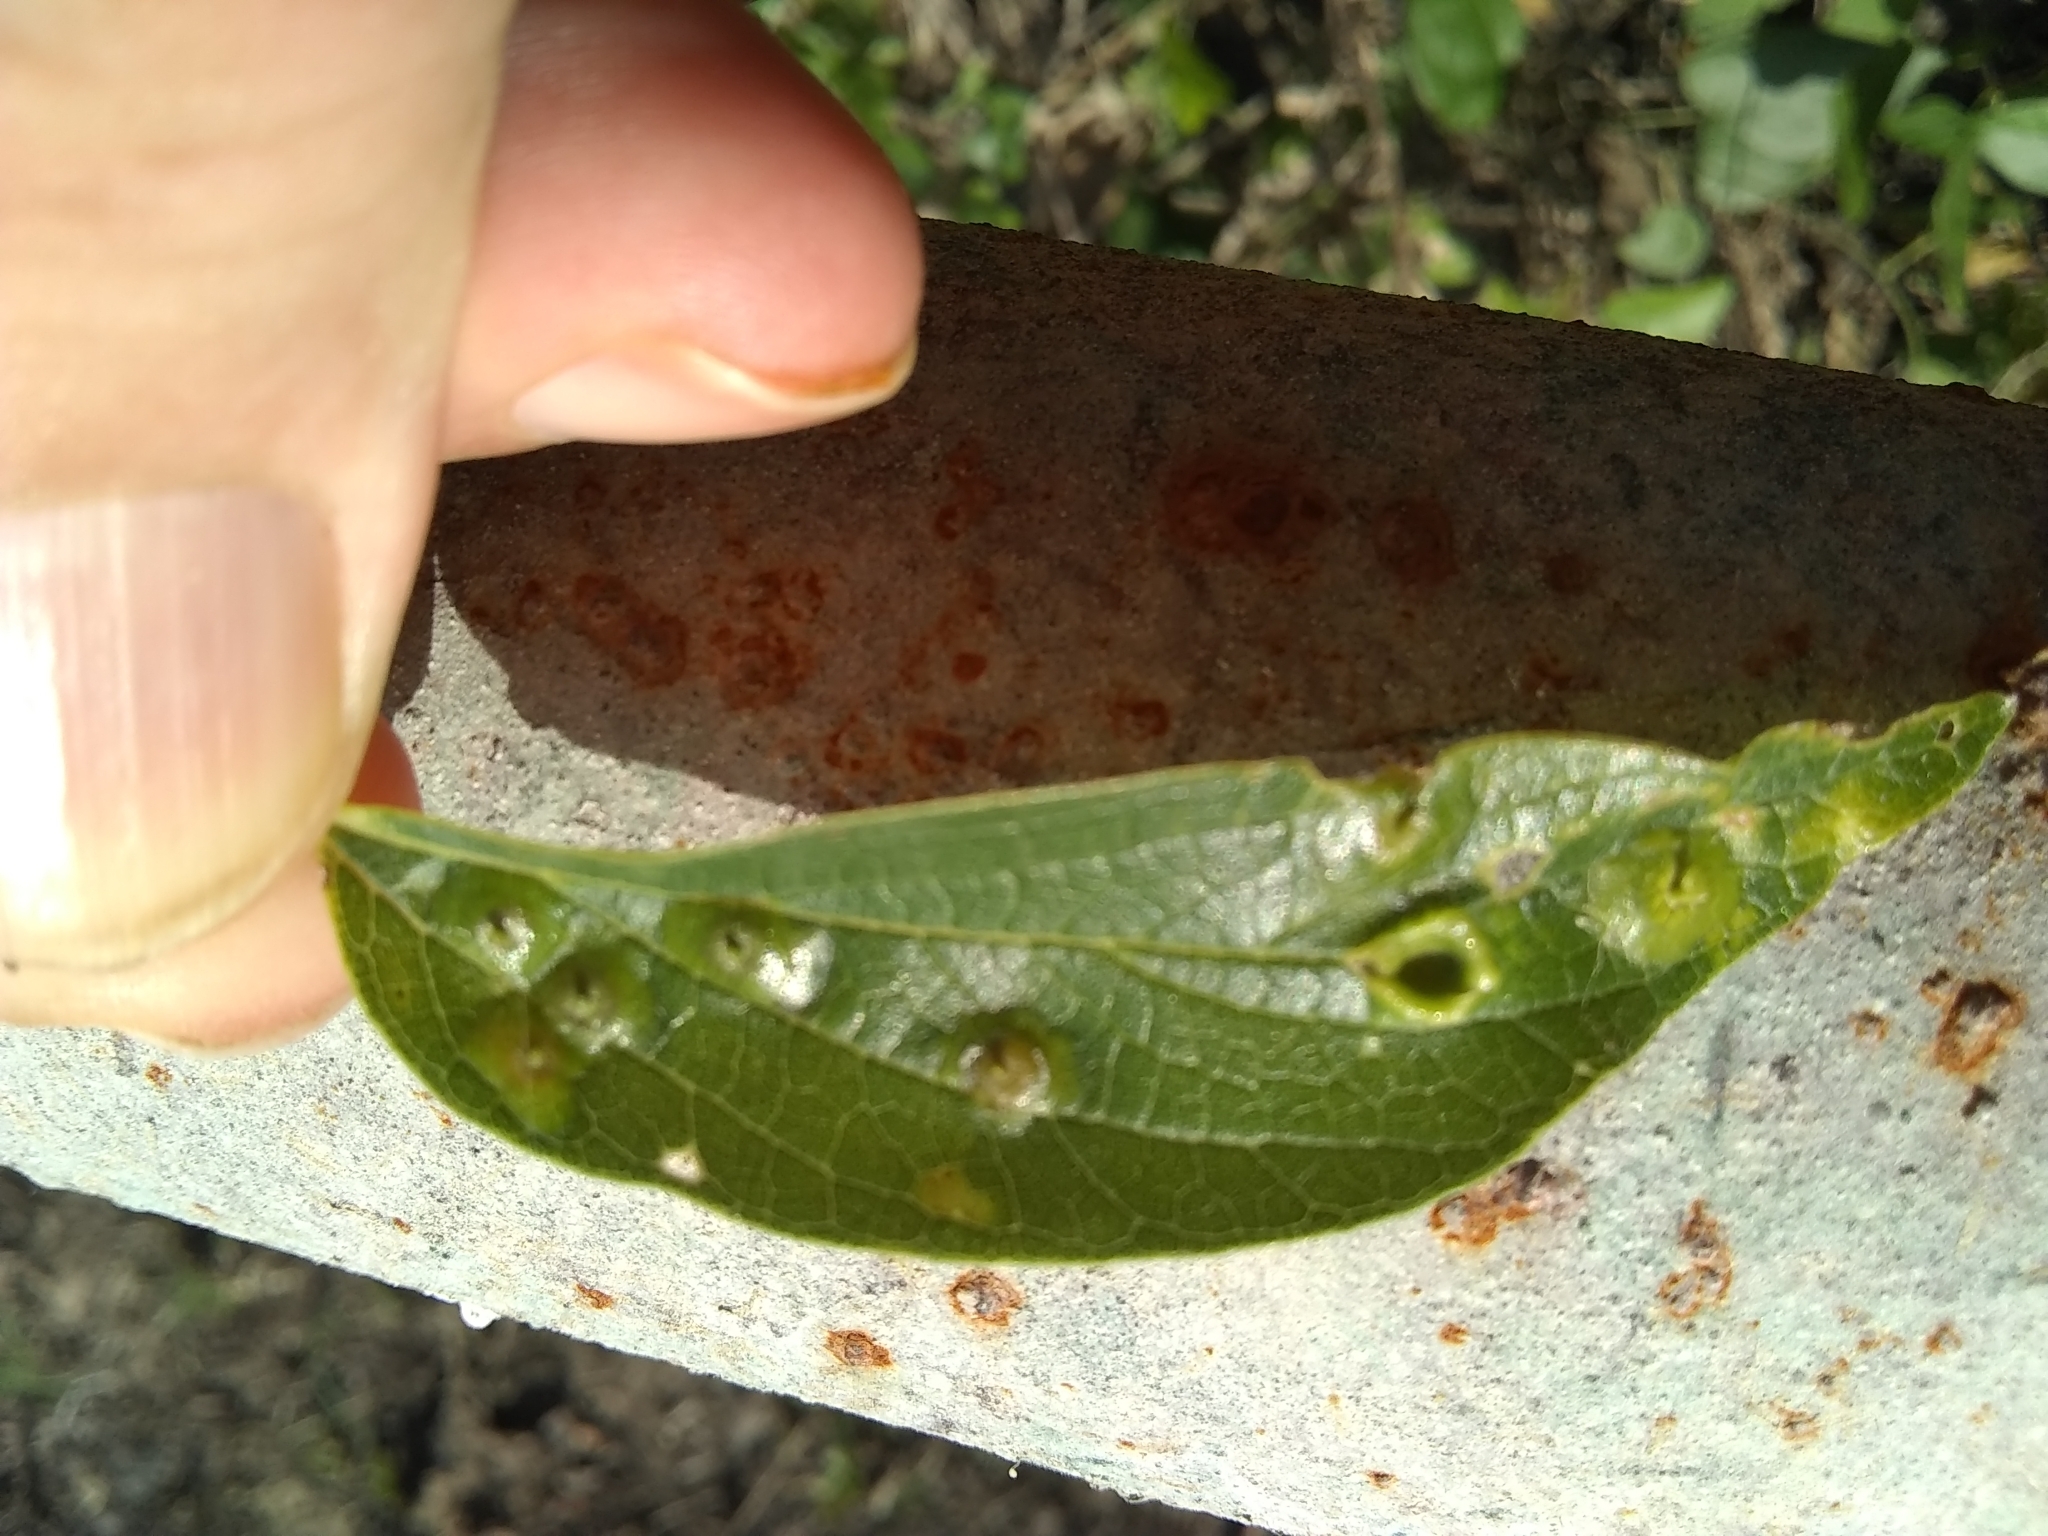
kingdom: Animalia
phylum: Arthropoda
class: Insecta
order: Hemiptera
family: Aphalaridae
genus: Pachypsylla
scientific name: Pachypsylla celtidismamma
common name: Hackberry nipplegall psyllid
